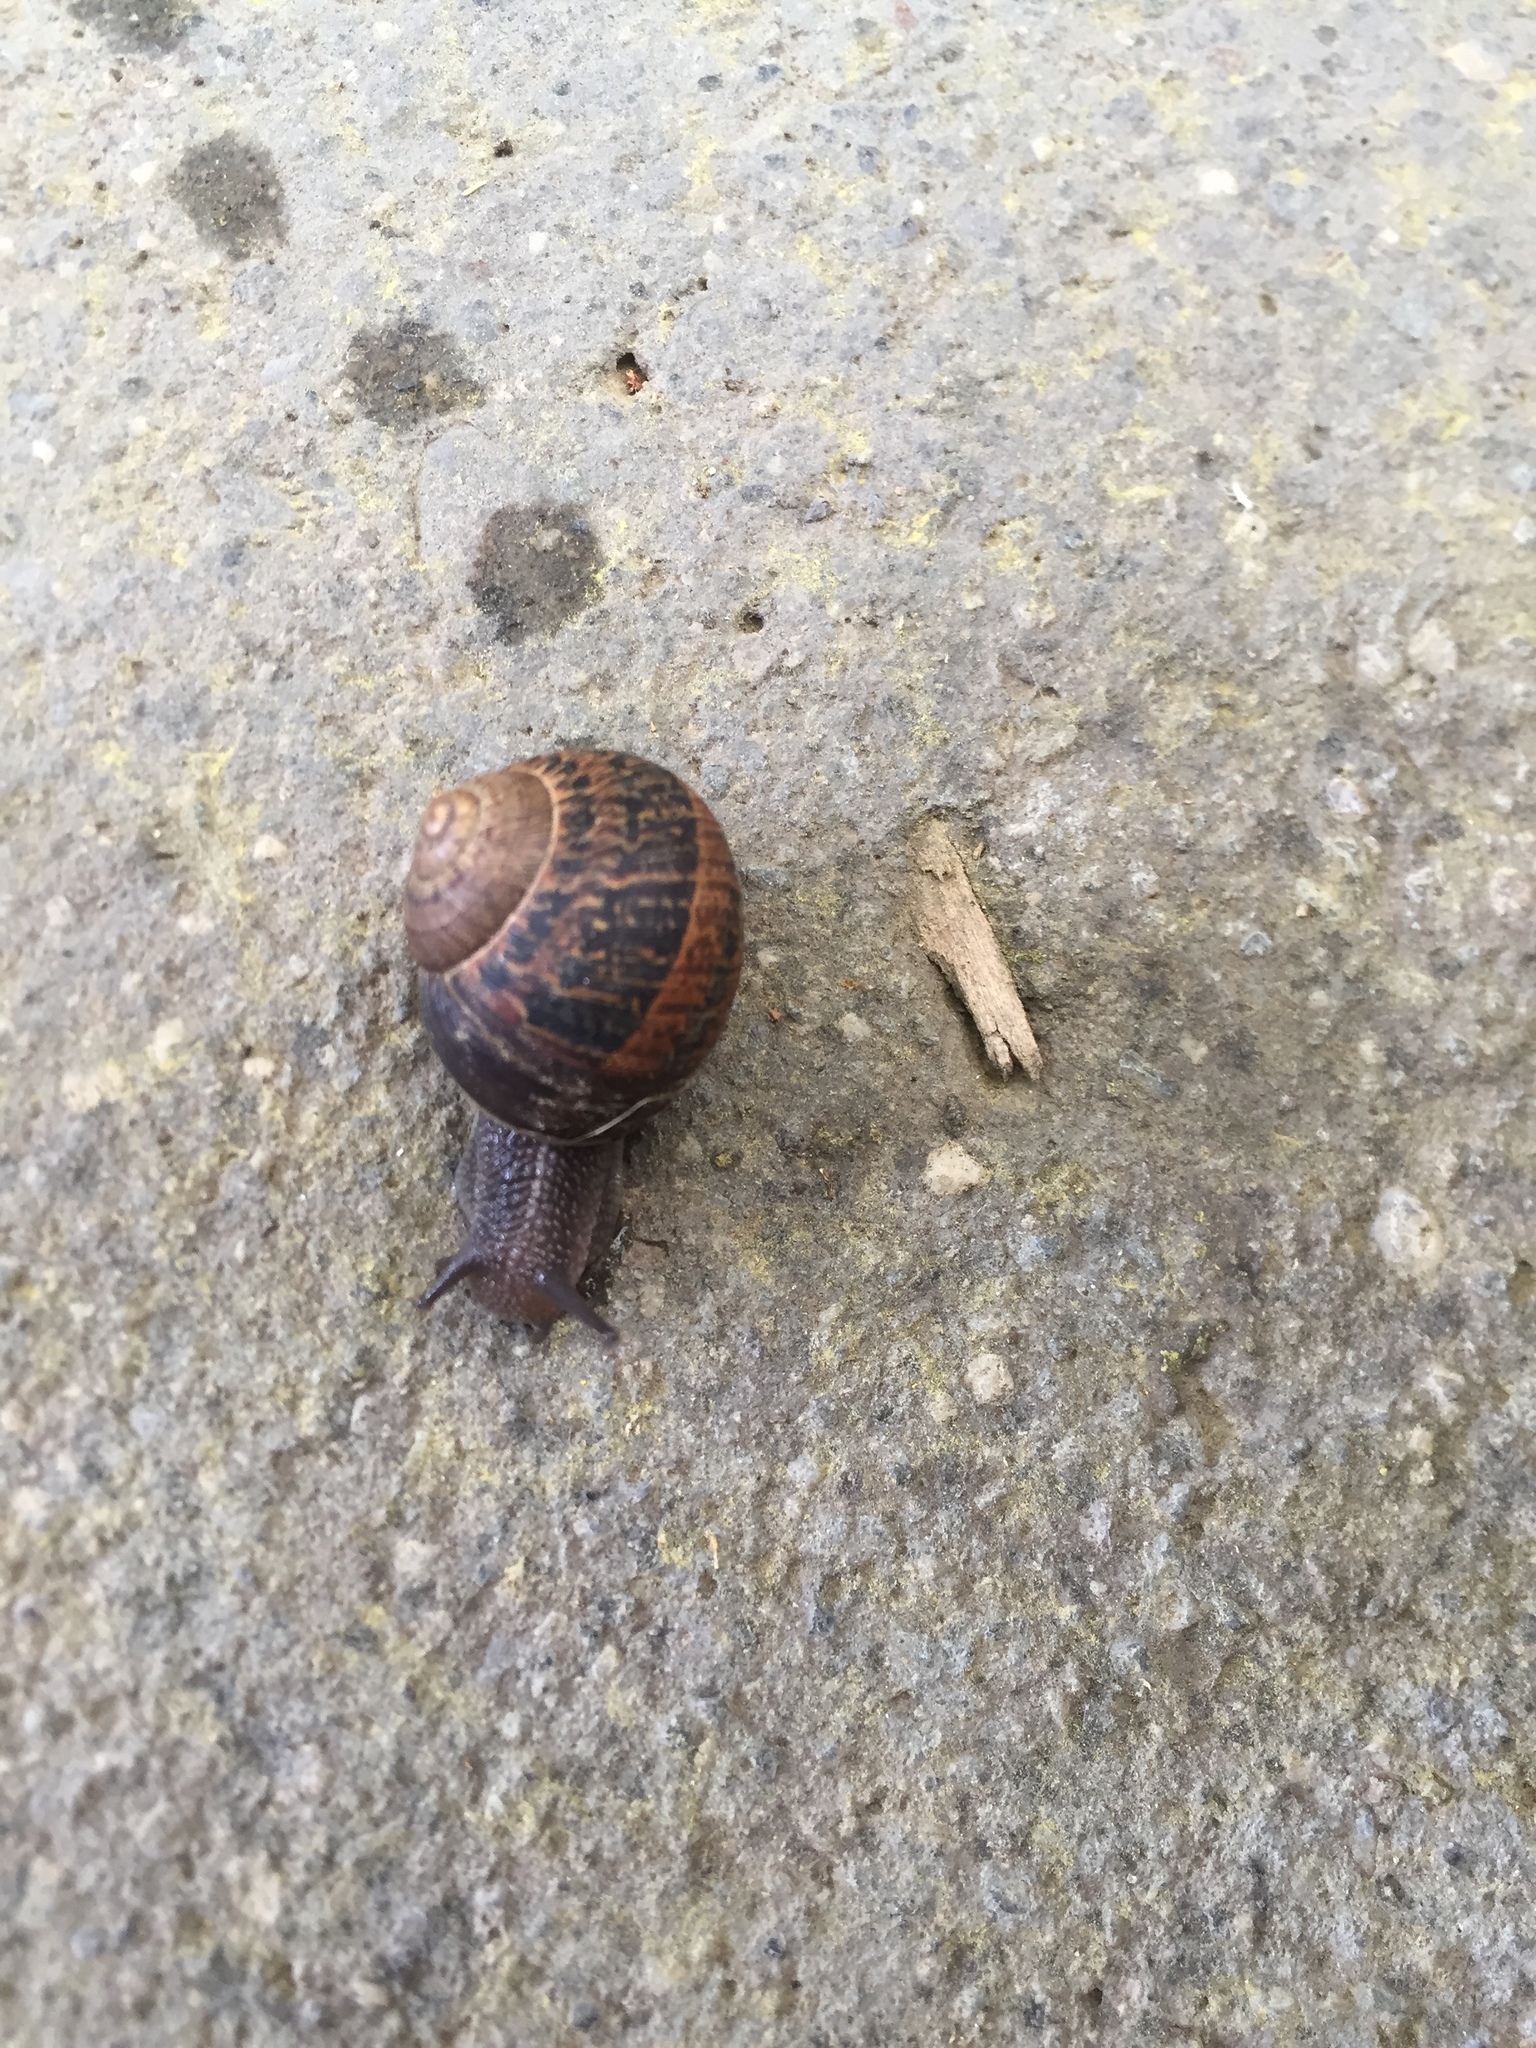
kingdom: Animalia
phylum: Mollusca
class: Gastropoda
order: Stylommatophora
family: Helicidae
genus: Cornu
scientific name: Cornu aspersum
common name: Brown garden snail
